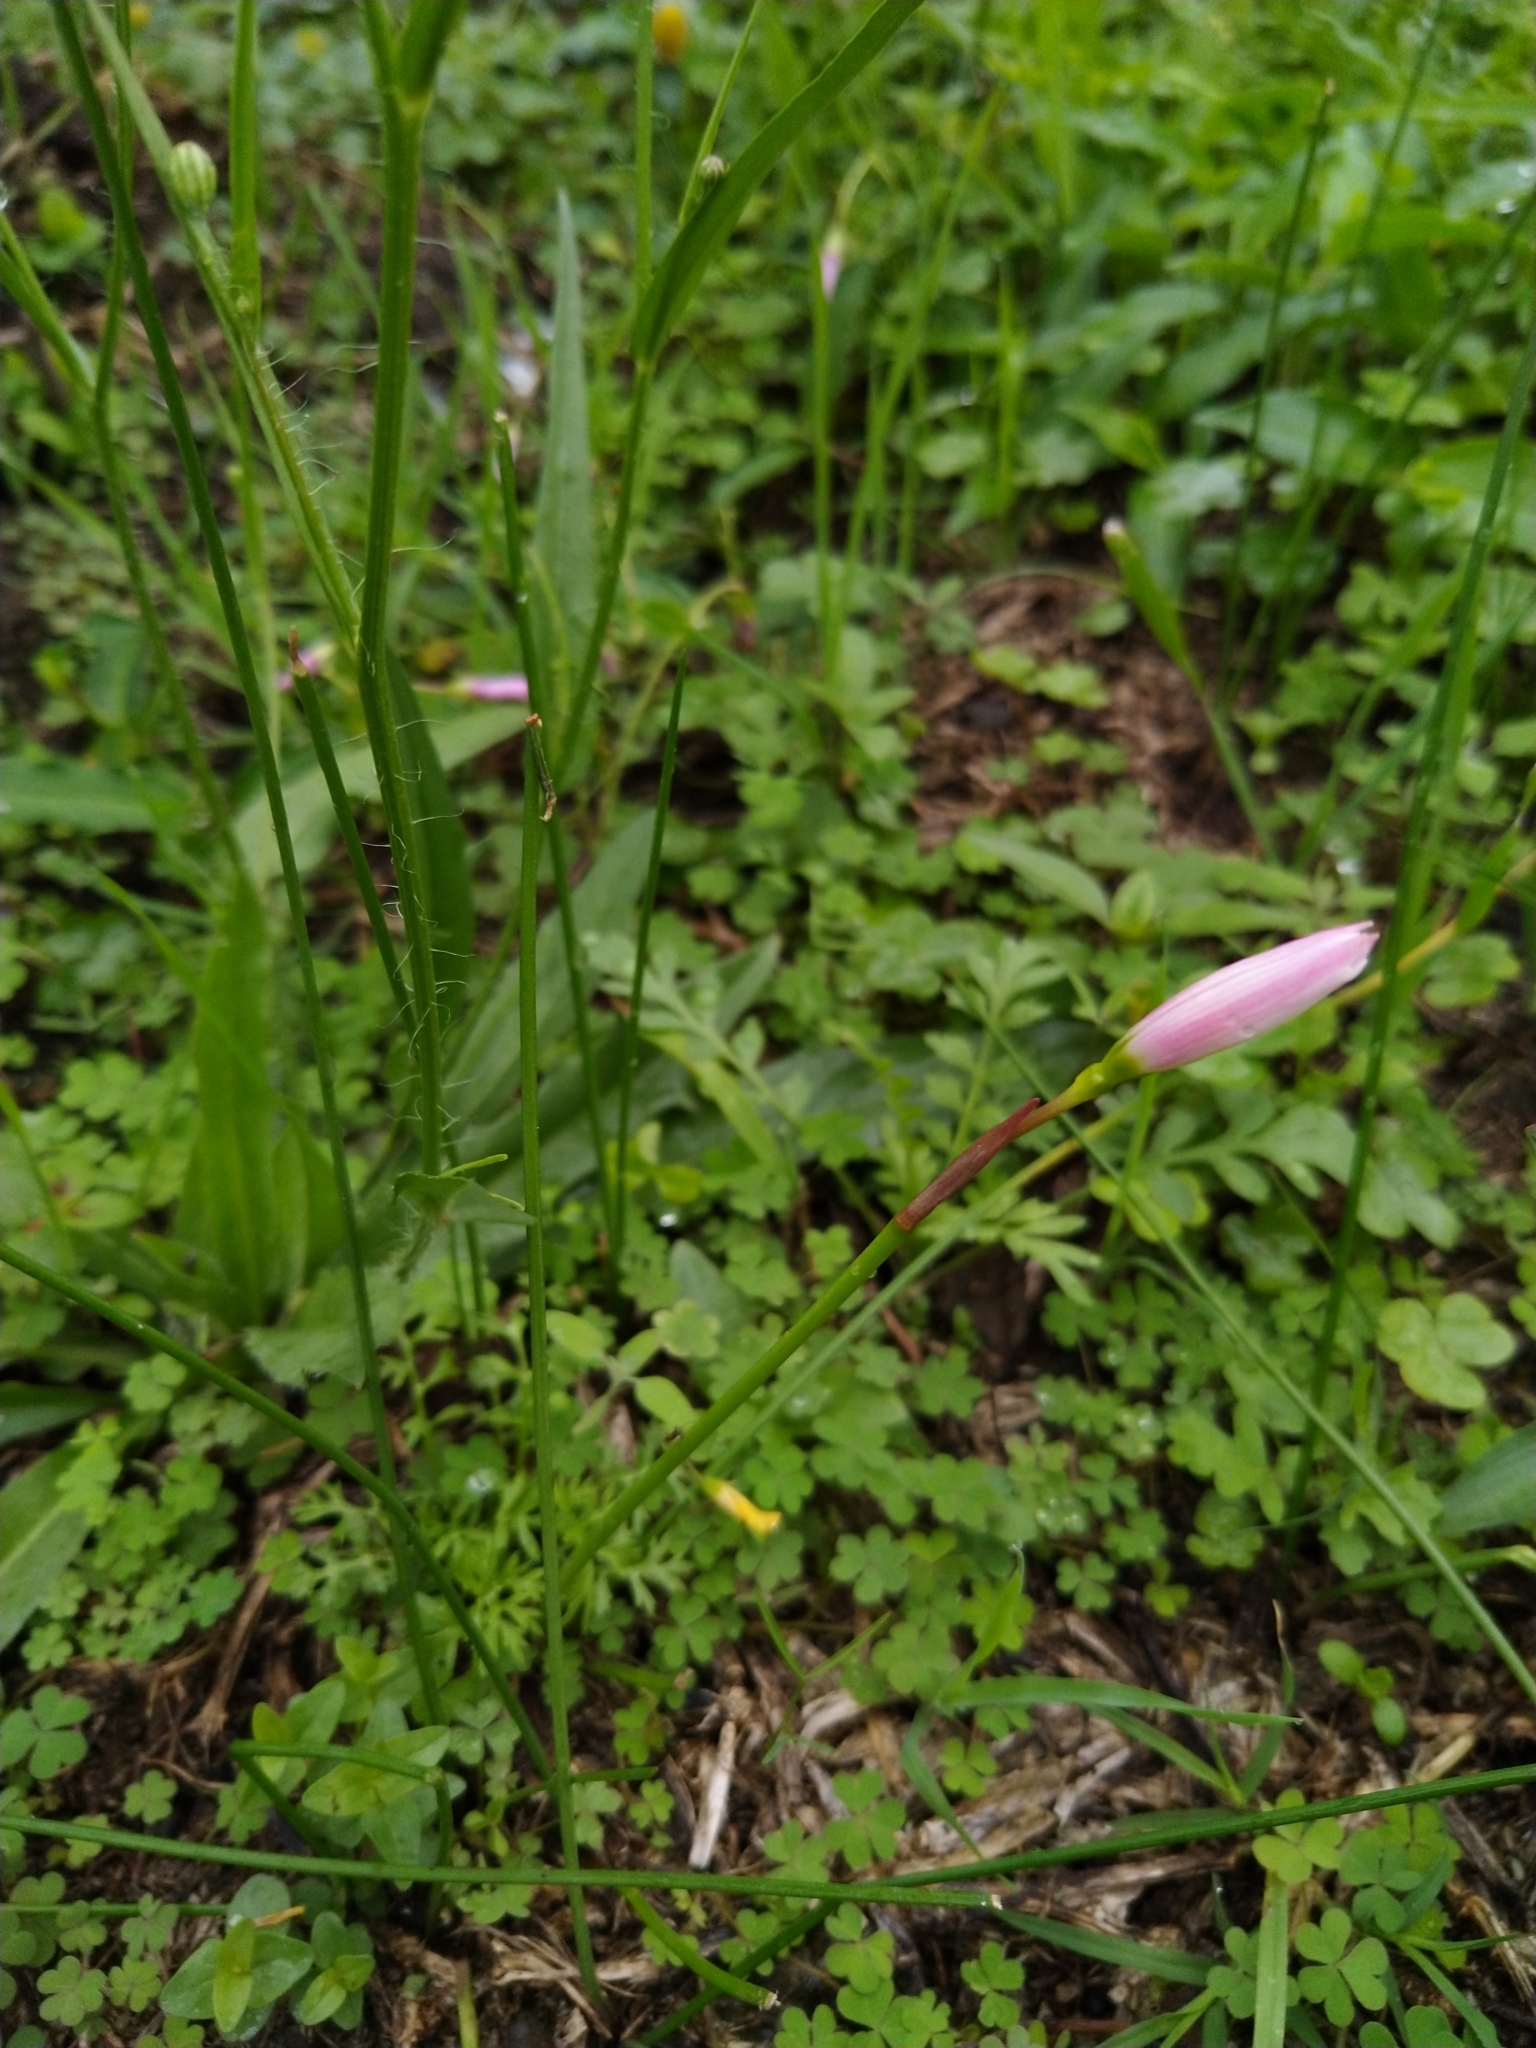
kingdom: Plantae
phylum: Tracheophyta
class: Liliopsida
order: Asparagales
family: Amaryllidaceae
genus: Zephyranthes
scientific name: Zephyranthes carinata
